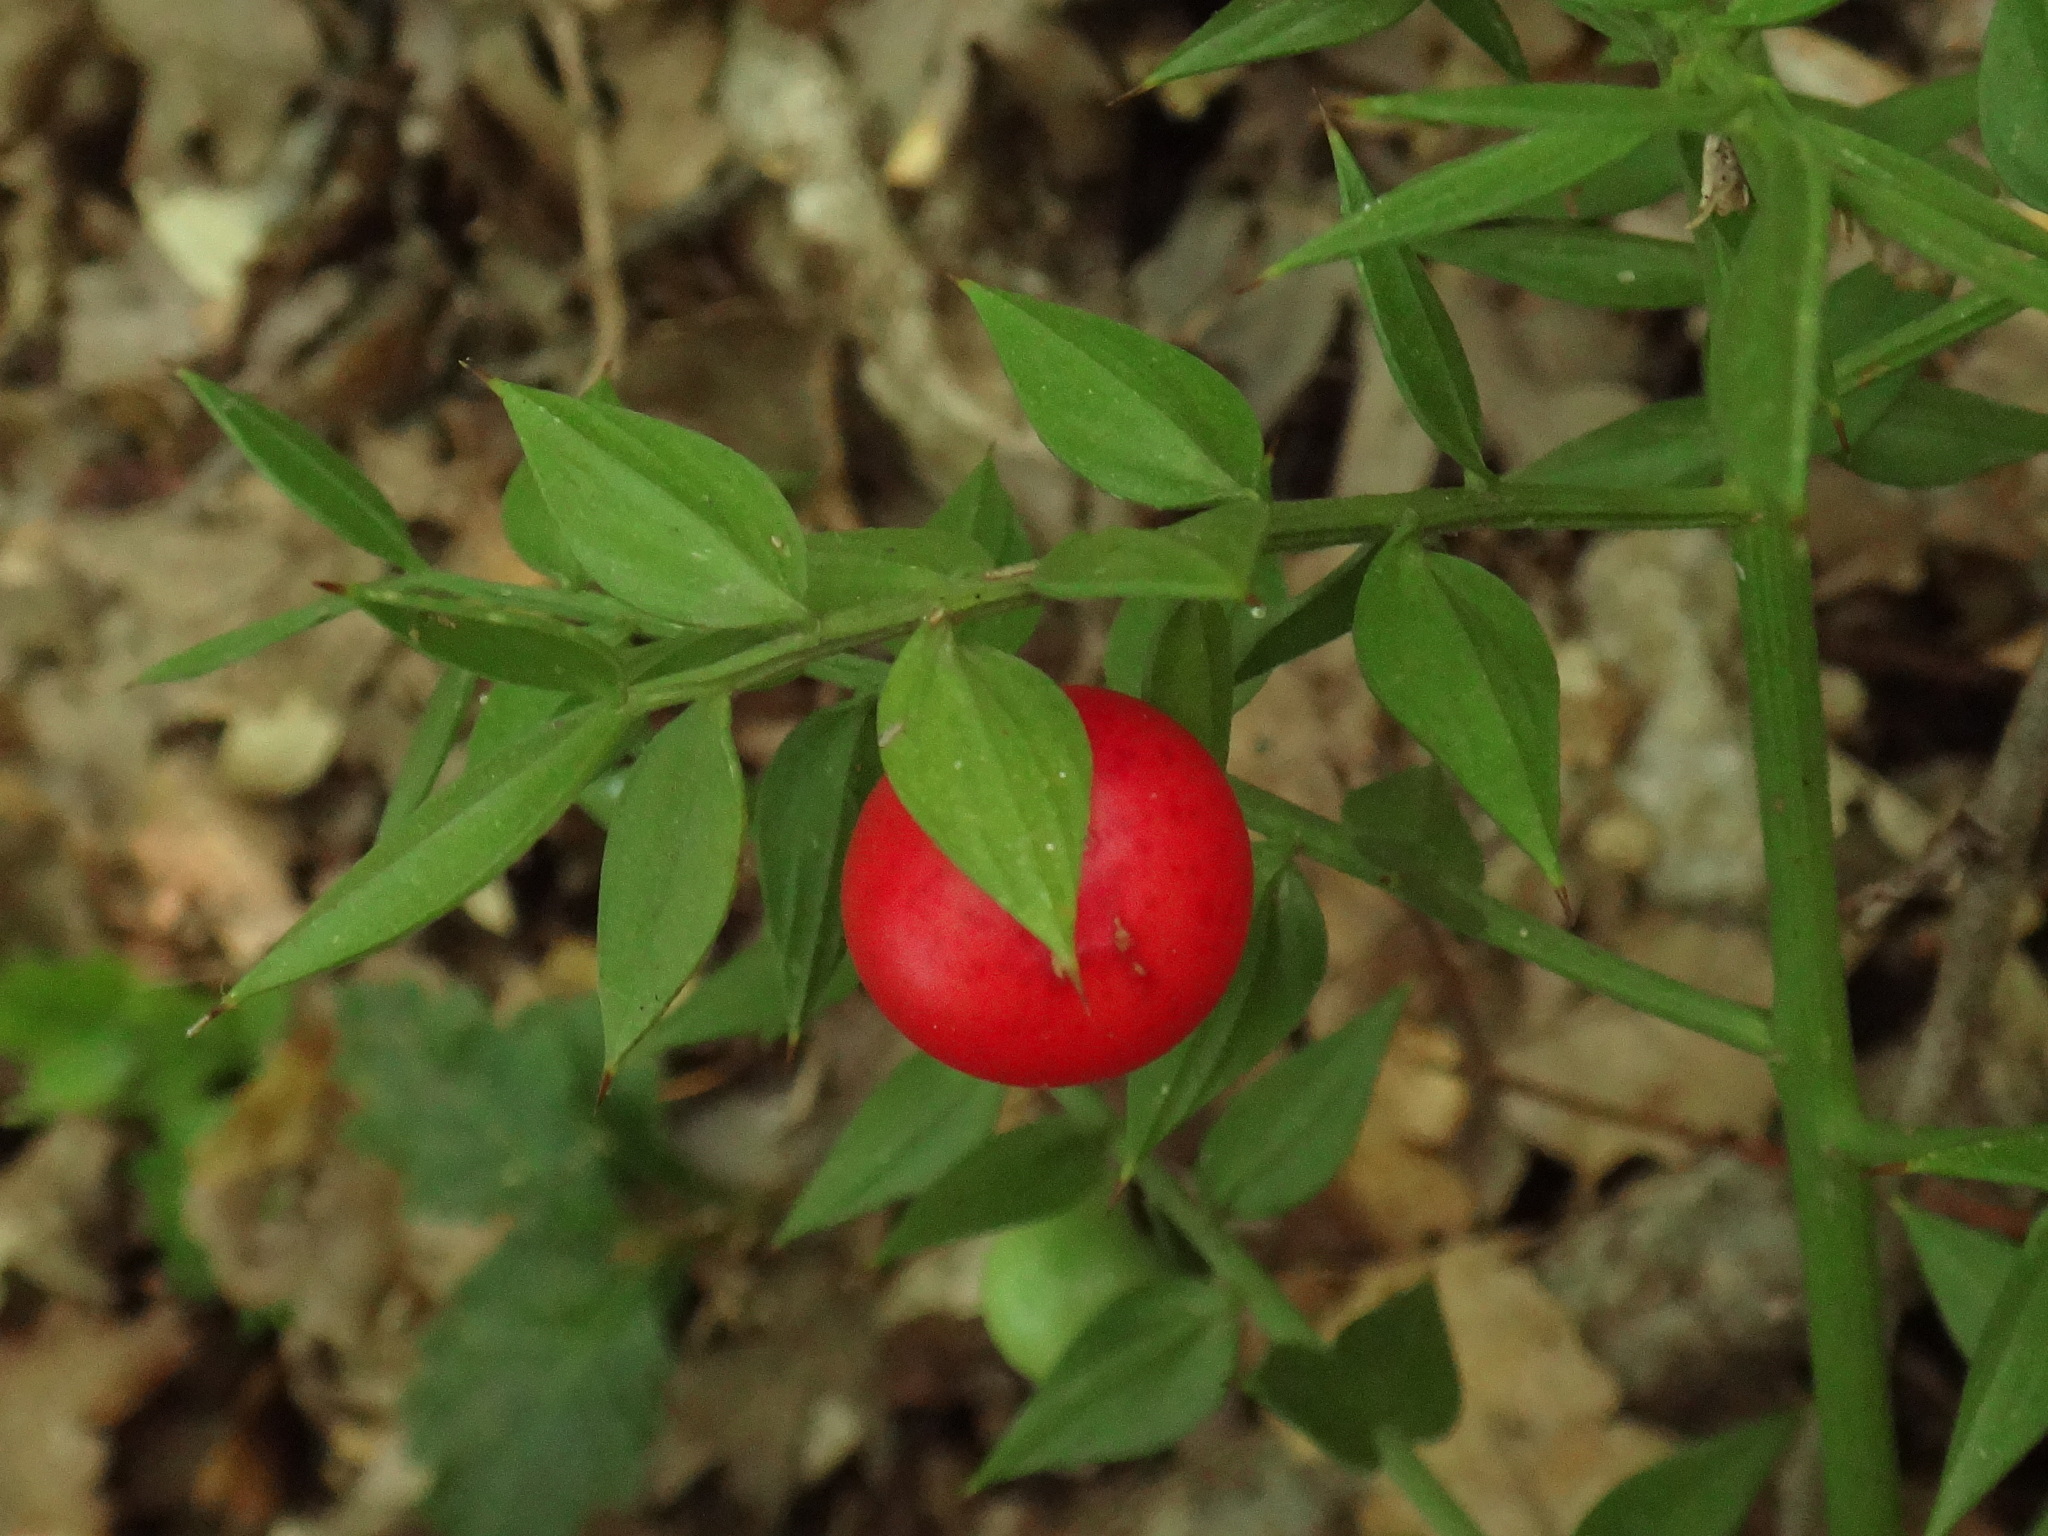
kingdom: Plantae
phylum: Tracheophyta
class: Liliopsida
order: Asparagales
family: Asparagaceae
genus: Ruscus
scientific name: Ruscus aculeatus
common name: Butcher's-broom
